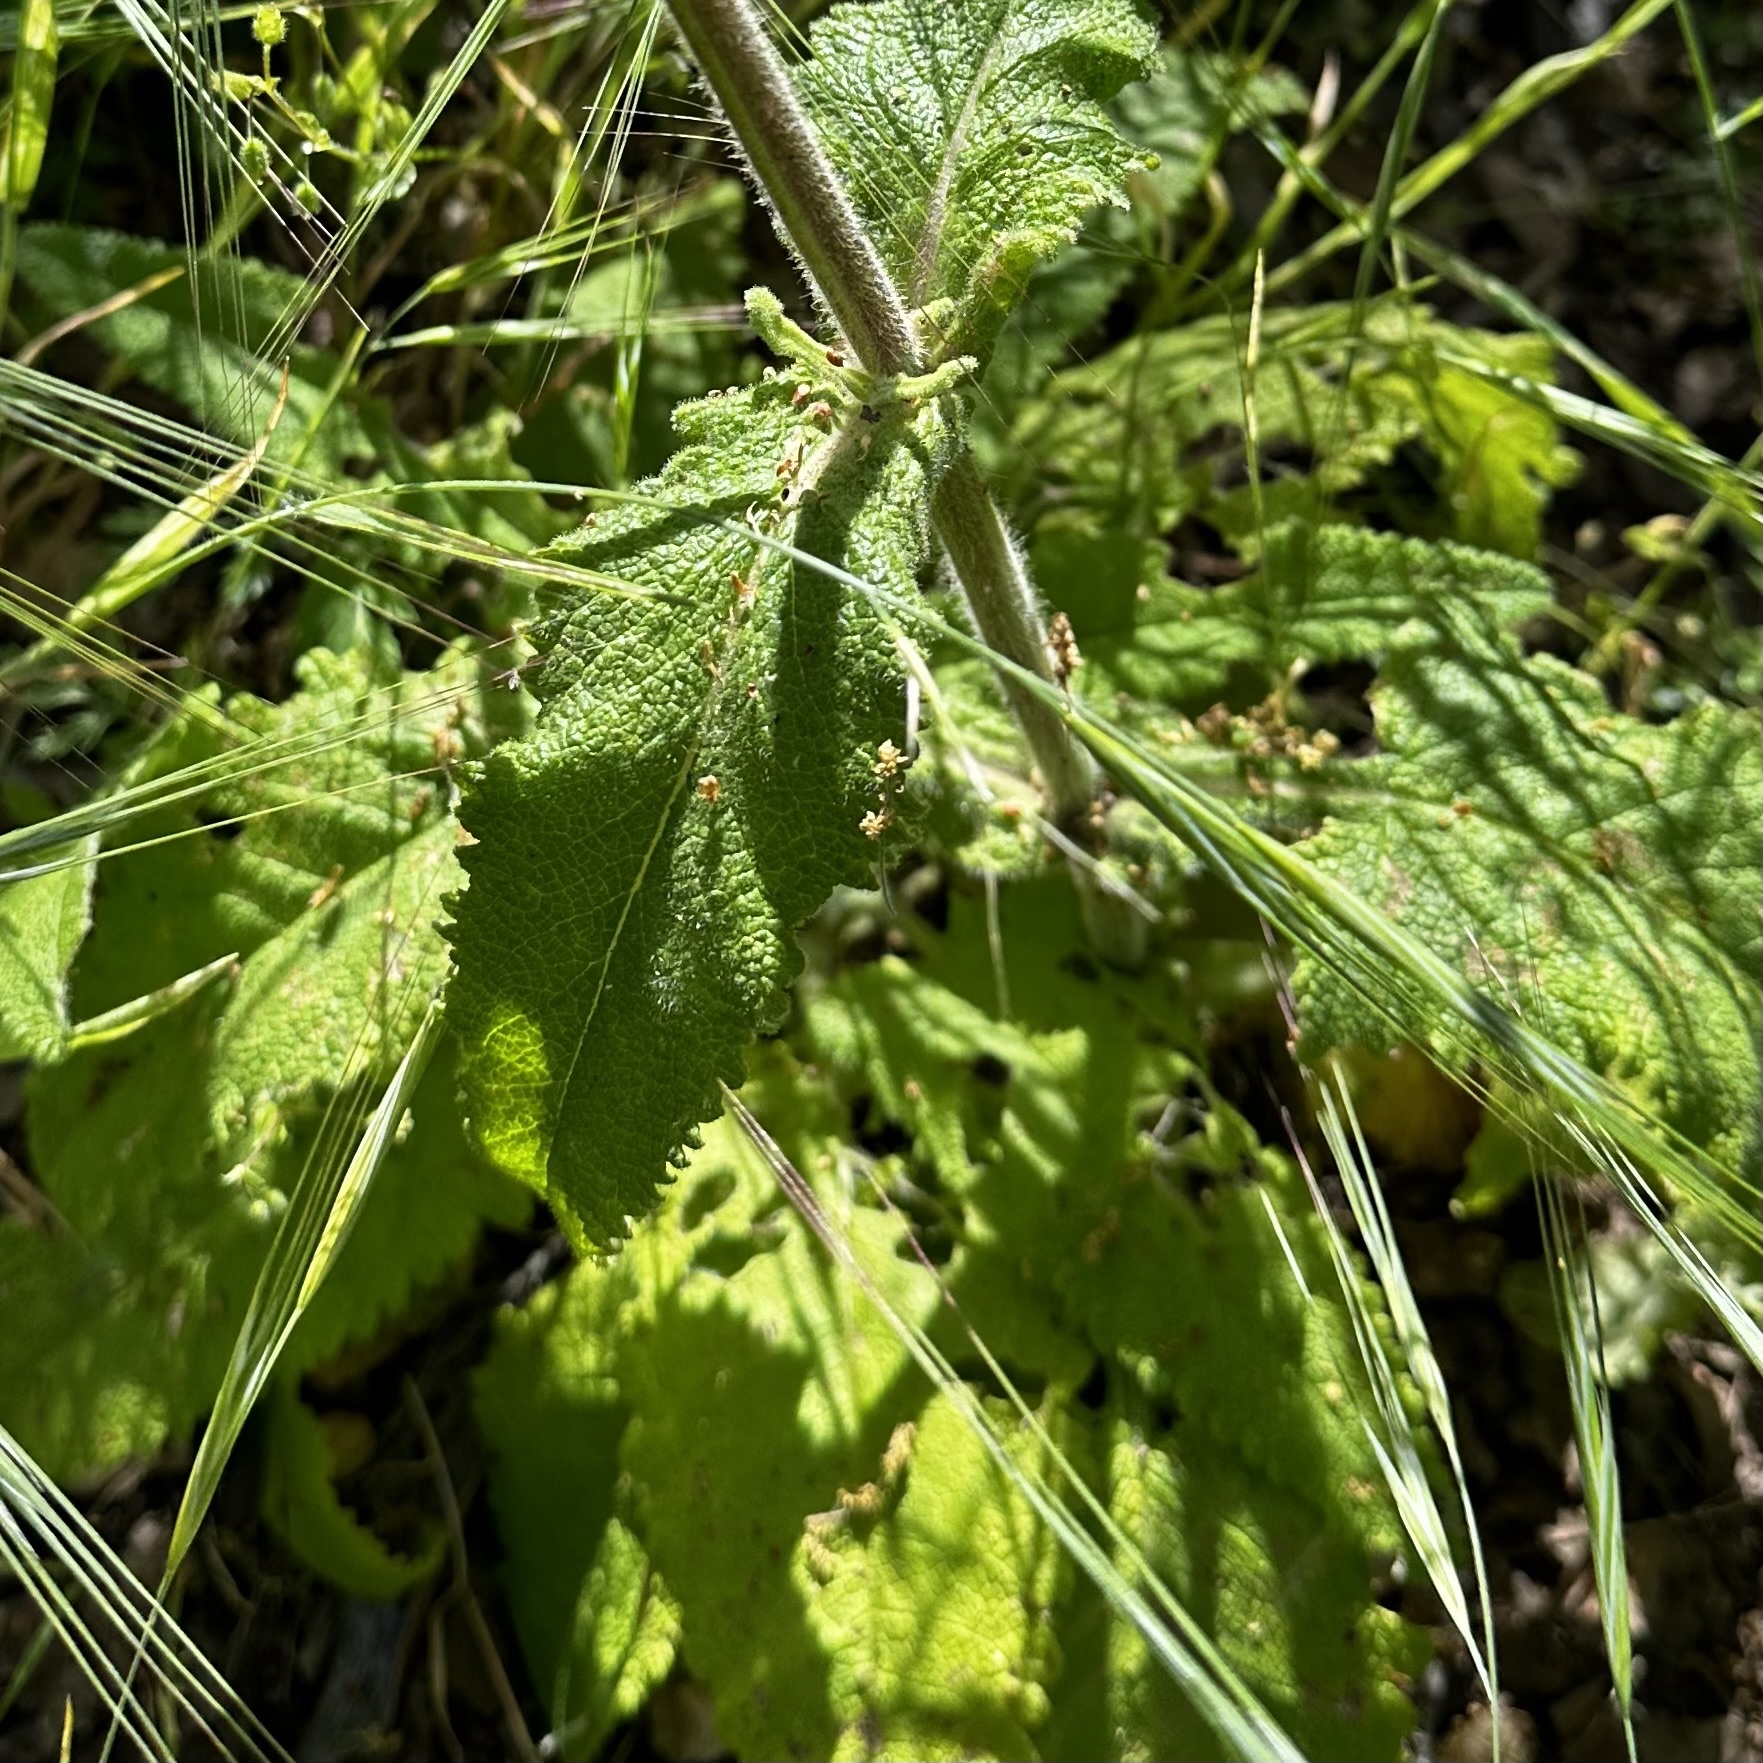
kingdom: Plantae
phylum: Tracheophyta
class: Magnoliopsida
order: Lamiales
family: Lamiaceae
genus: Salvia
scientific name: Salvia spathacea
